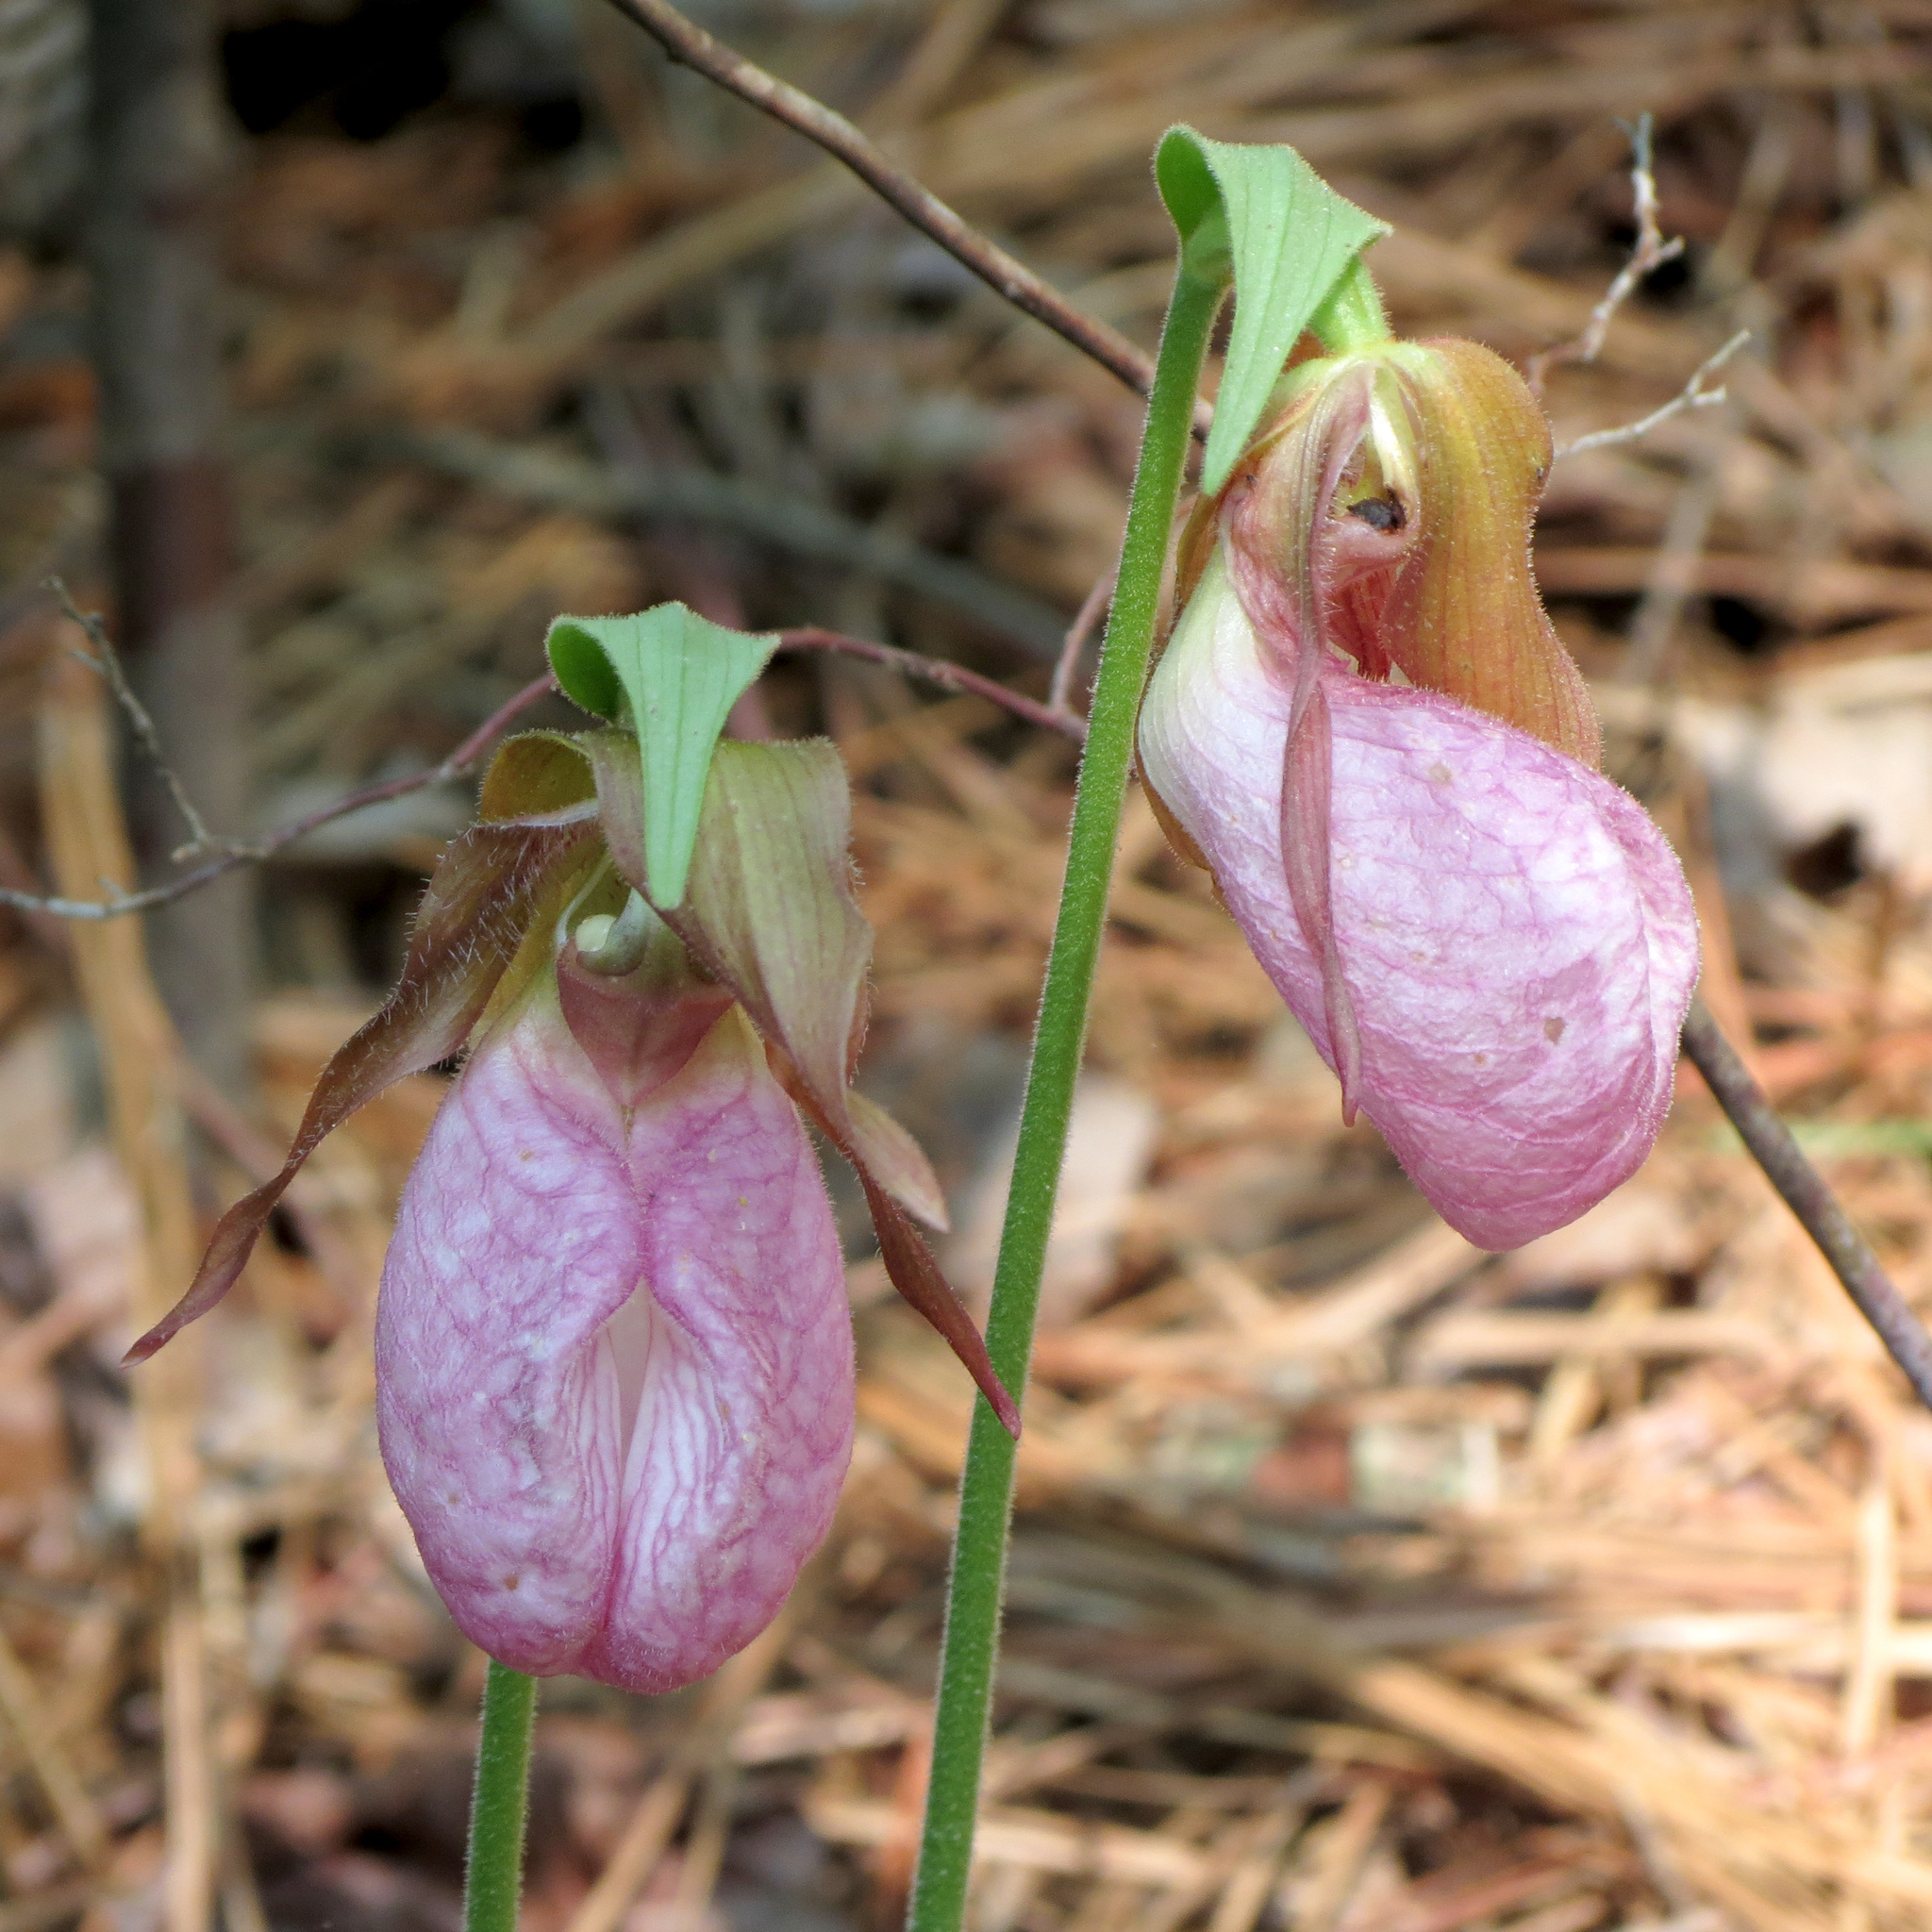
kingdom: Plantae
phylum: Tracheophyta
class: Liliopsida
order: Asparagales
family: Orchidaceae
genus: Cypripedium
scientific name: Cypripedium acaule
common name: Pink lady's-slipper
